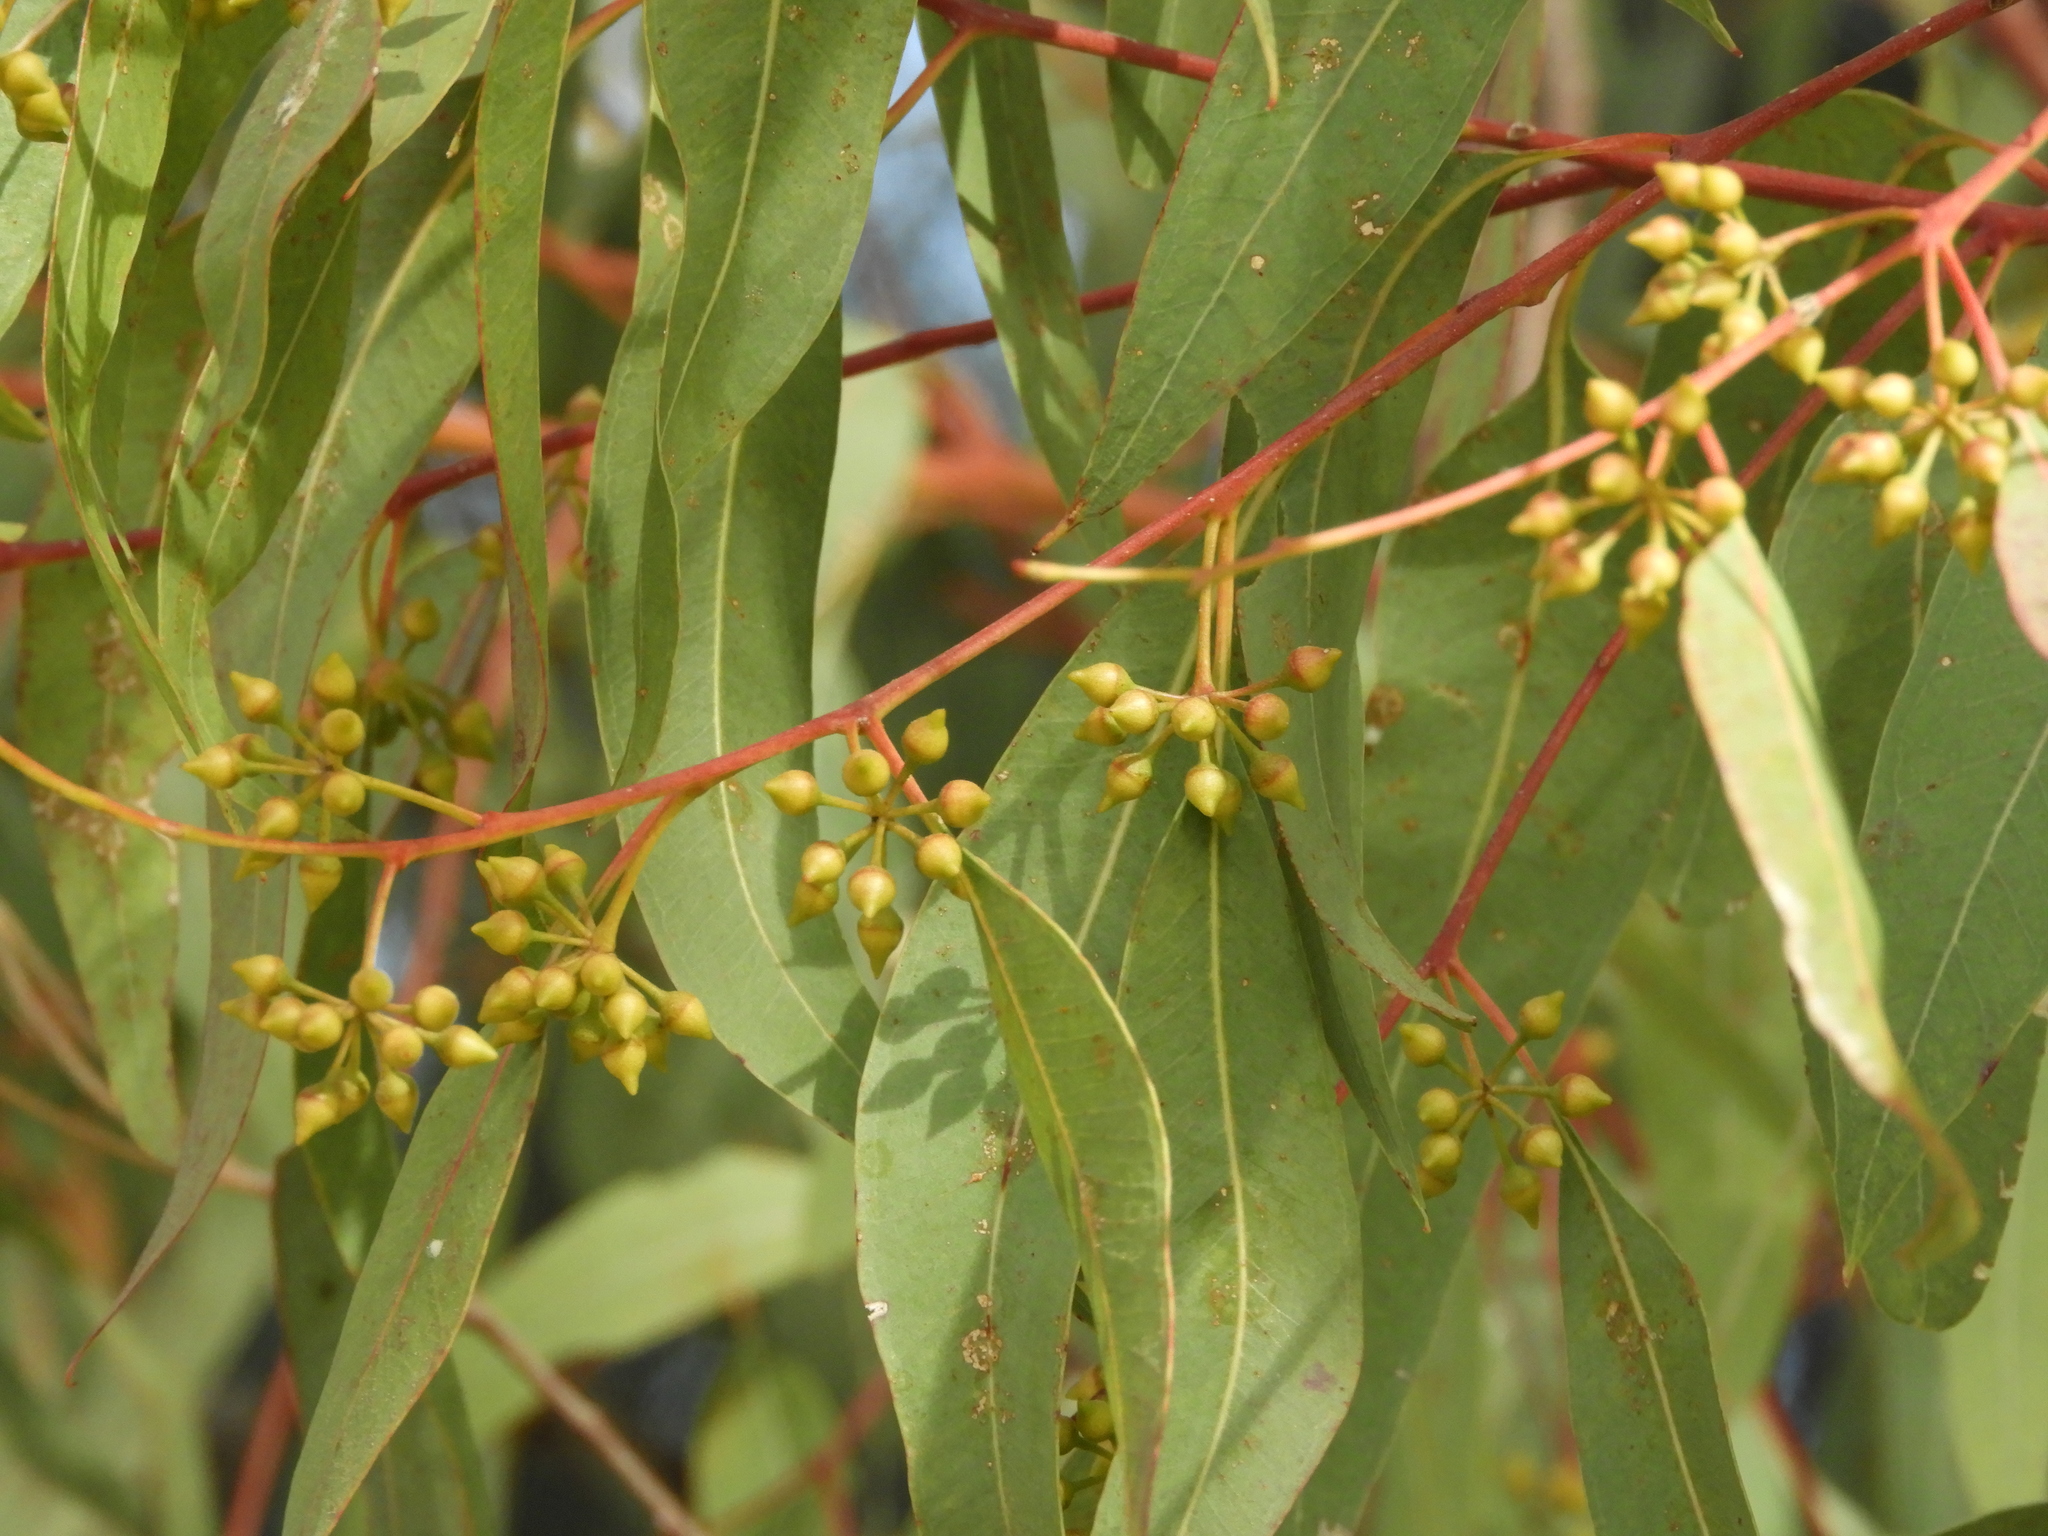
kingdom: Plantae
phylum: Tracheophyta
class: Magnoliopsida
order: Myrtales
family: Myrtaceae
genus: Eucalyptus
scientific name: Eucalyptus camaldulensis
